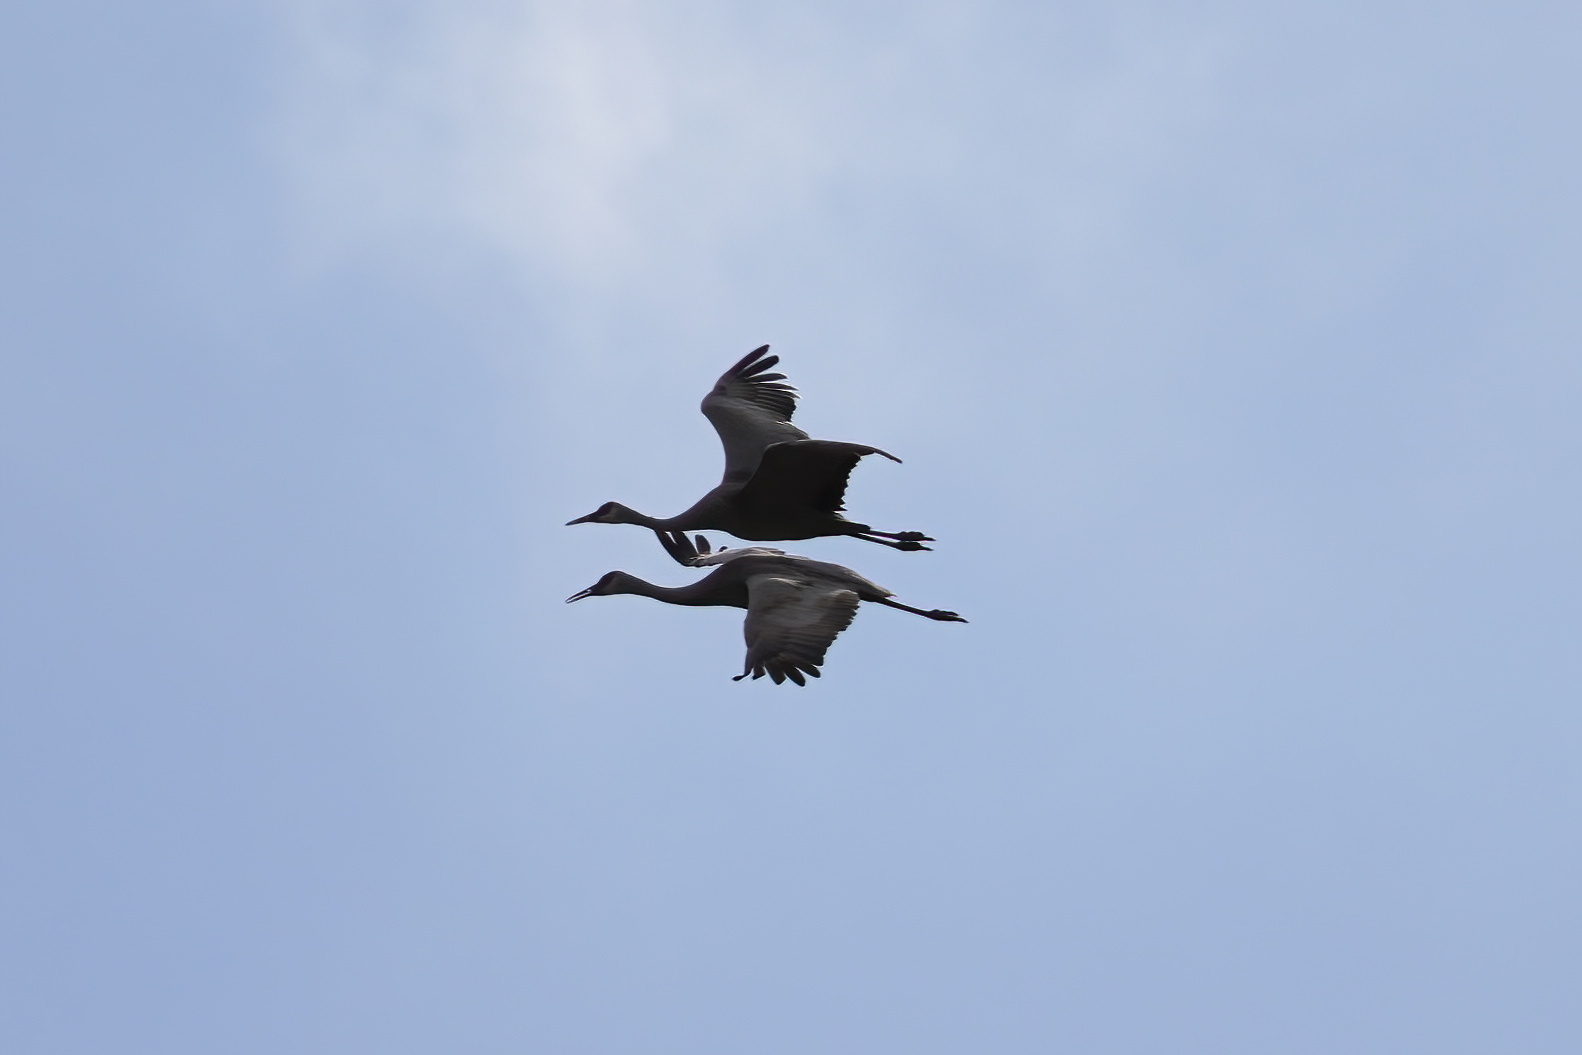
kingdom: Animalia
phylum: Chordata
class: Aves
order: Gruiformes
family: Gruidae
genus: Grus
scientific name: Grus canadensis
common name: Sandhill crane
